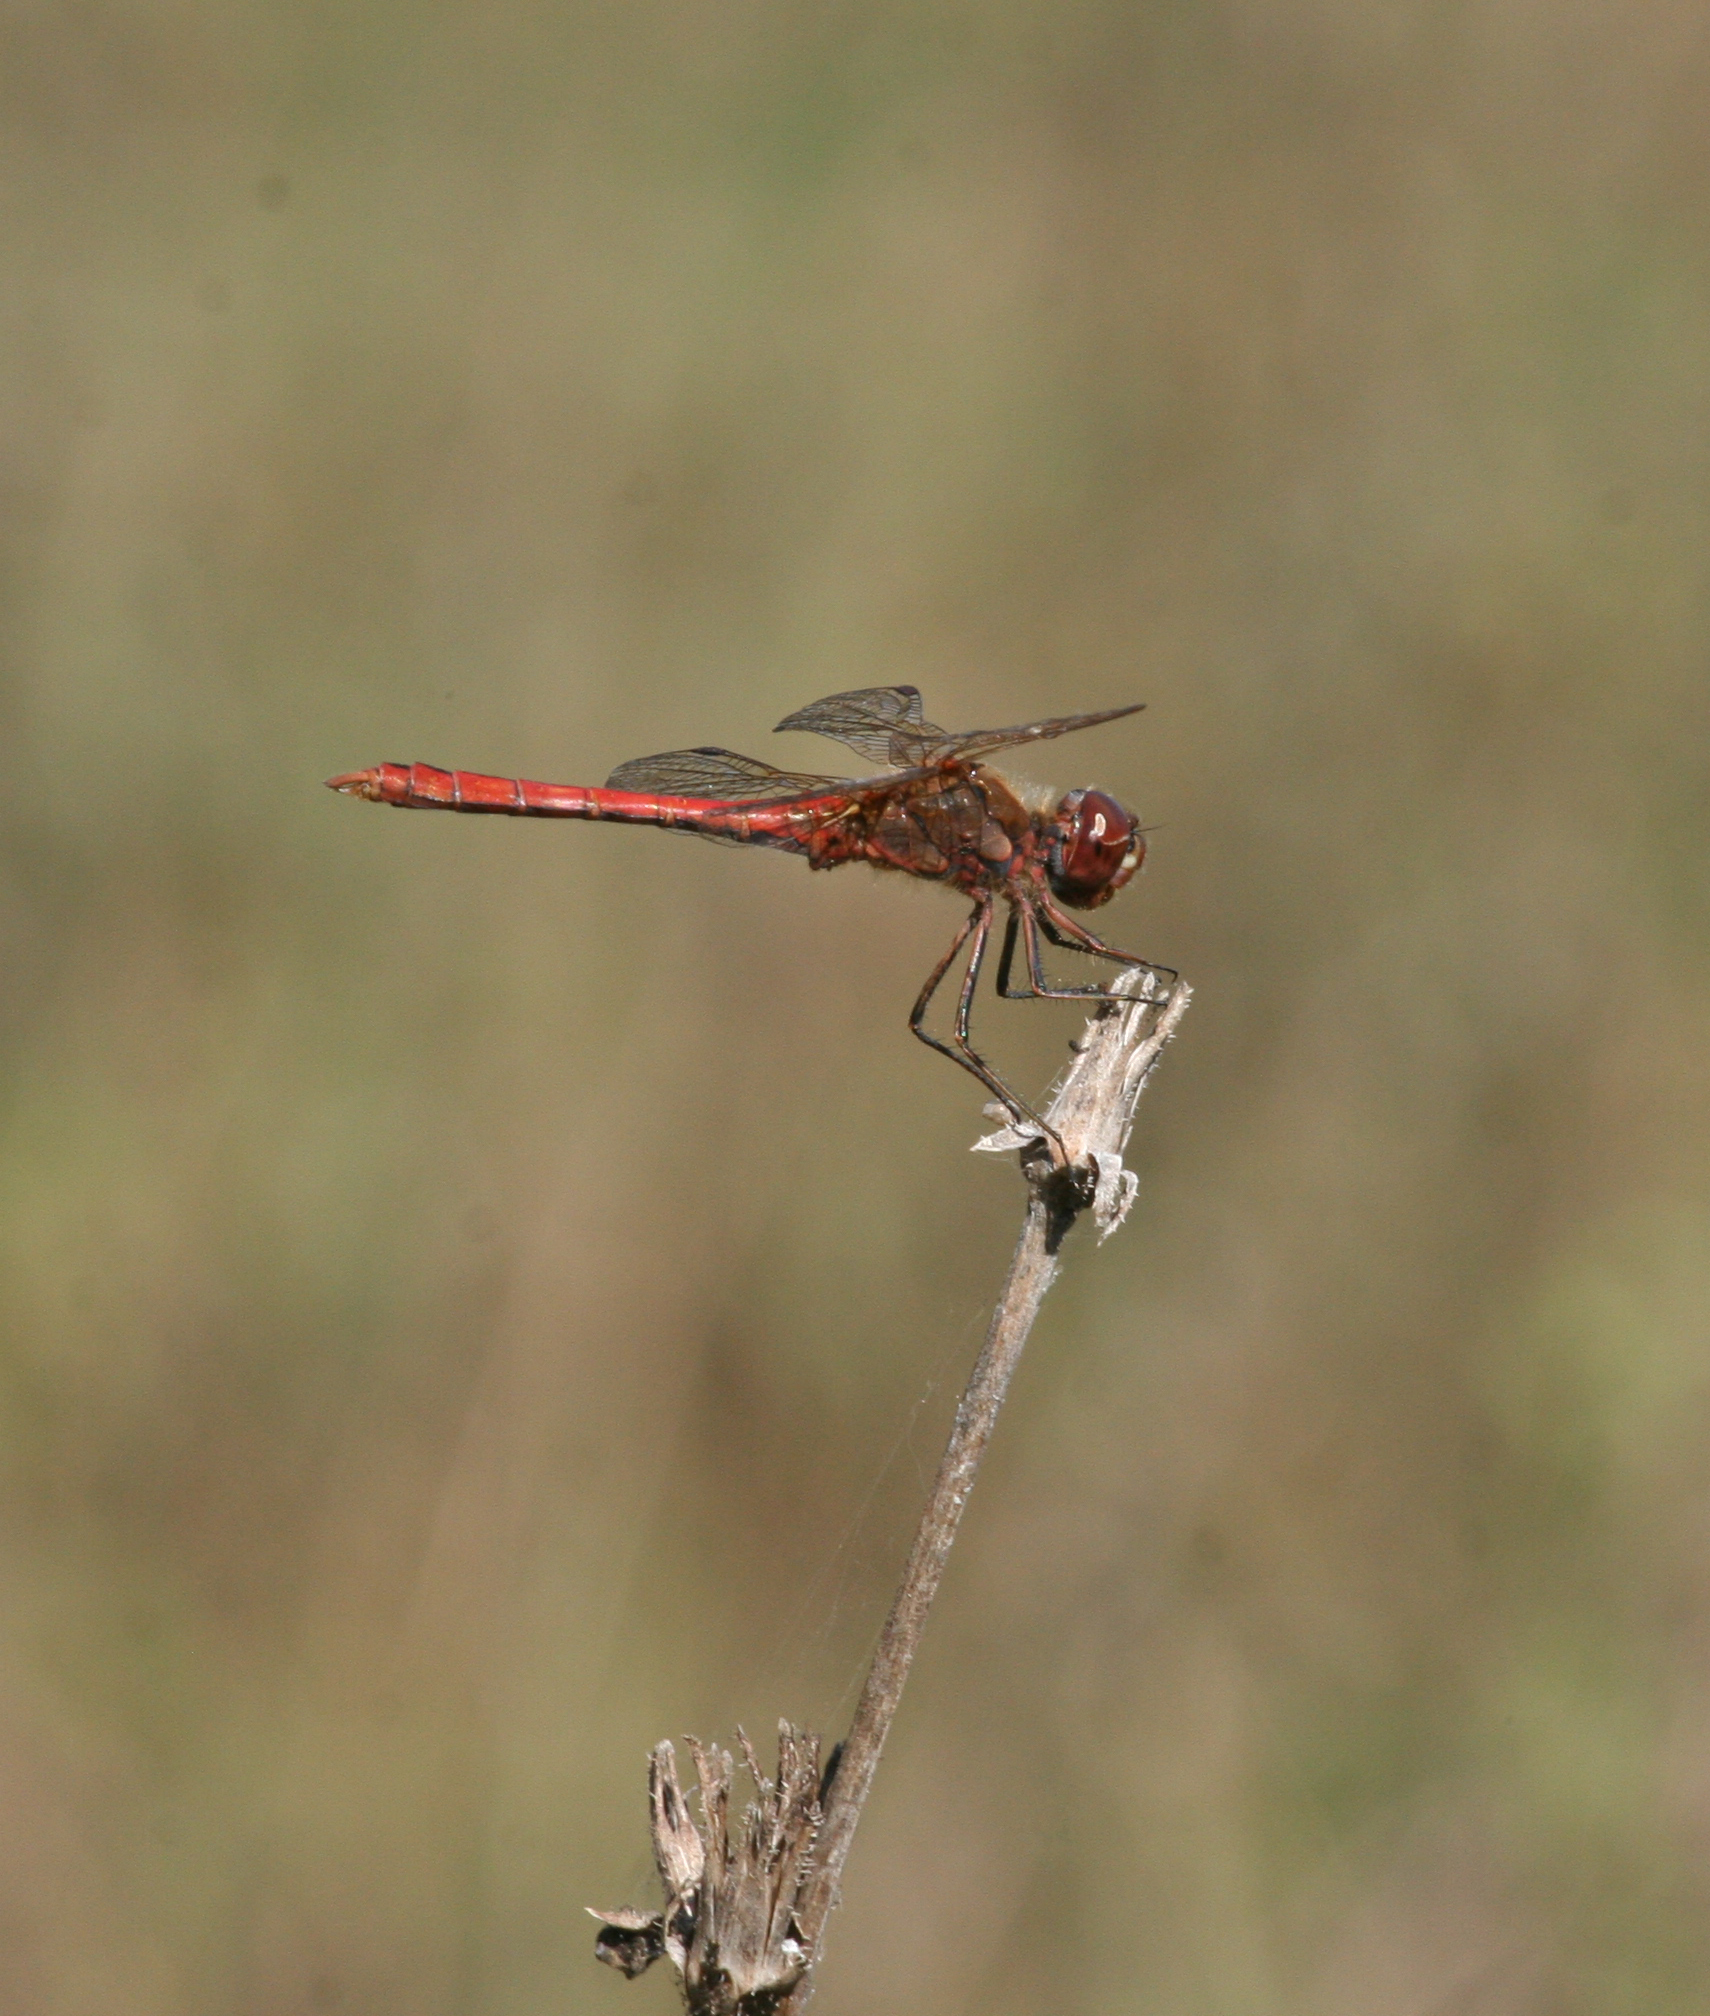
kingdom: Animalia
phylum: Arthropoda
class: Insecta
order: Odonata
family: Libellulidae
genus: Sympetrum
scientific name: Sympetrum vulgatum
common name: Vagrant darter
